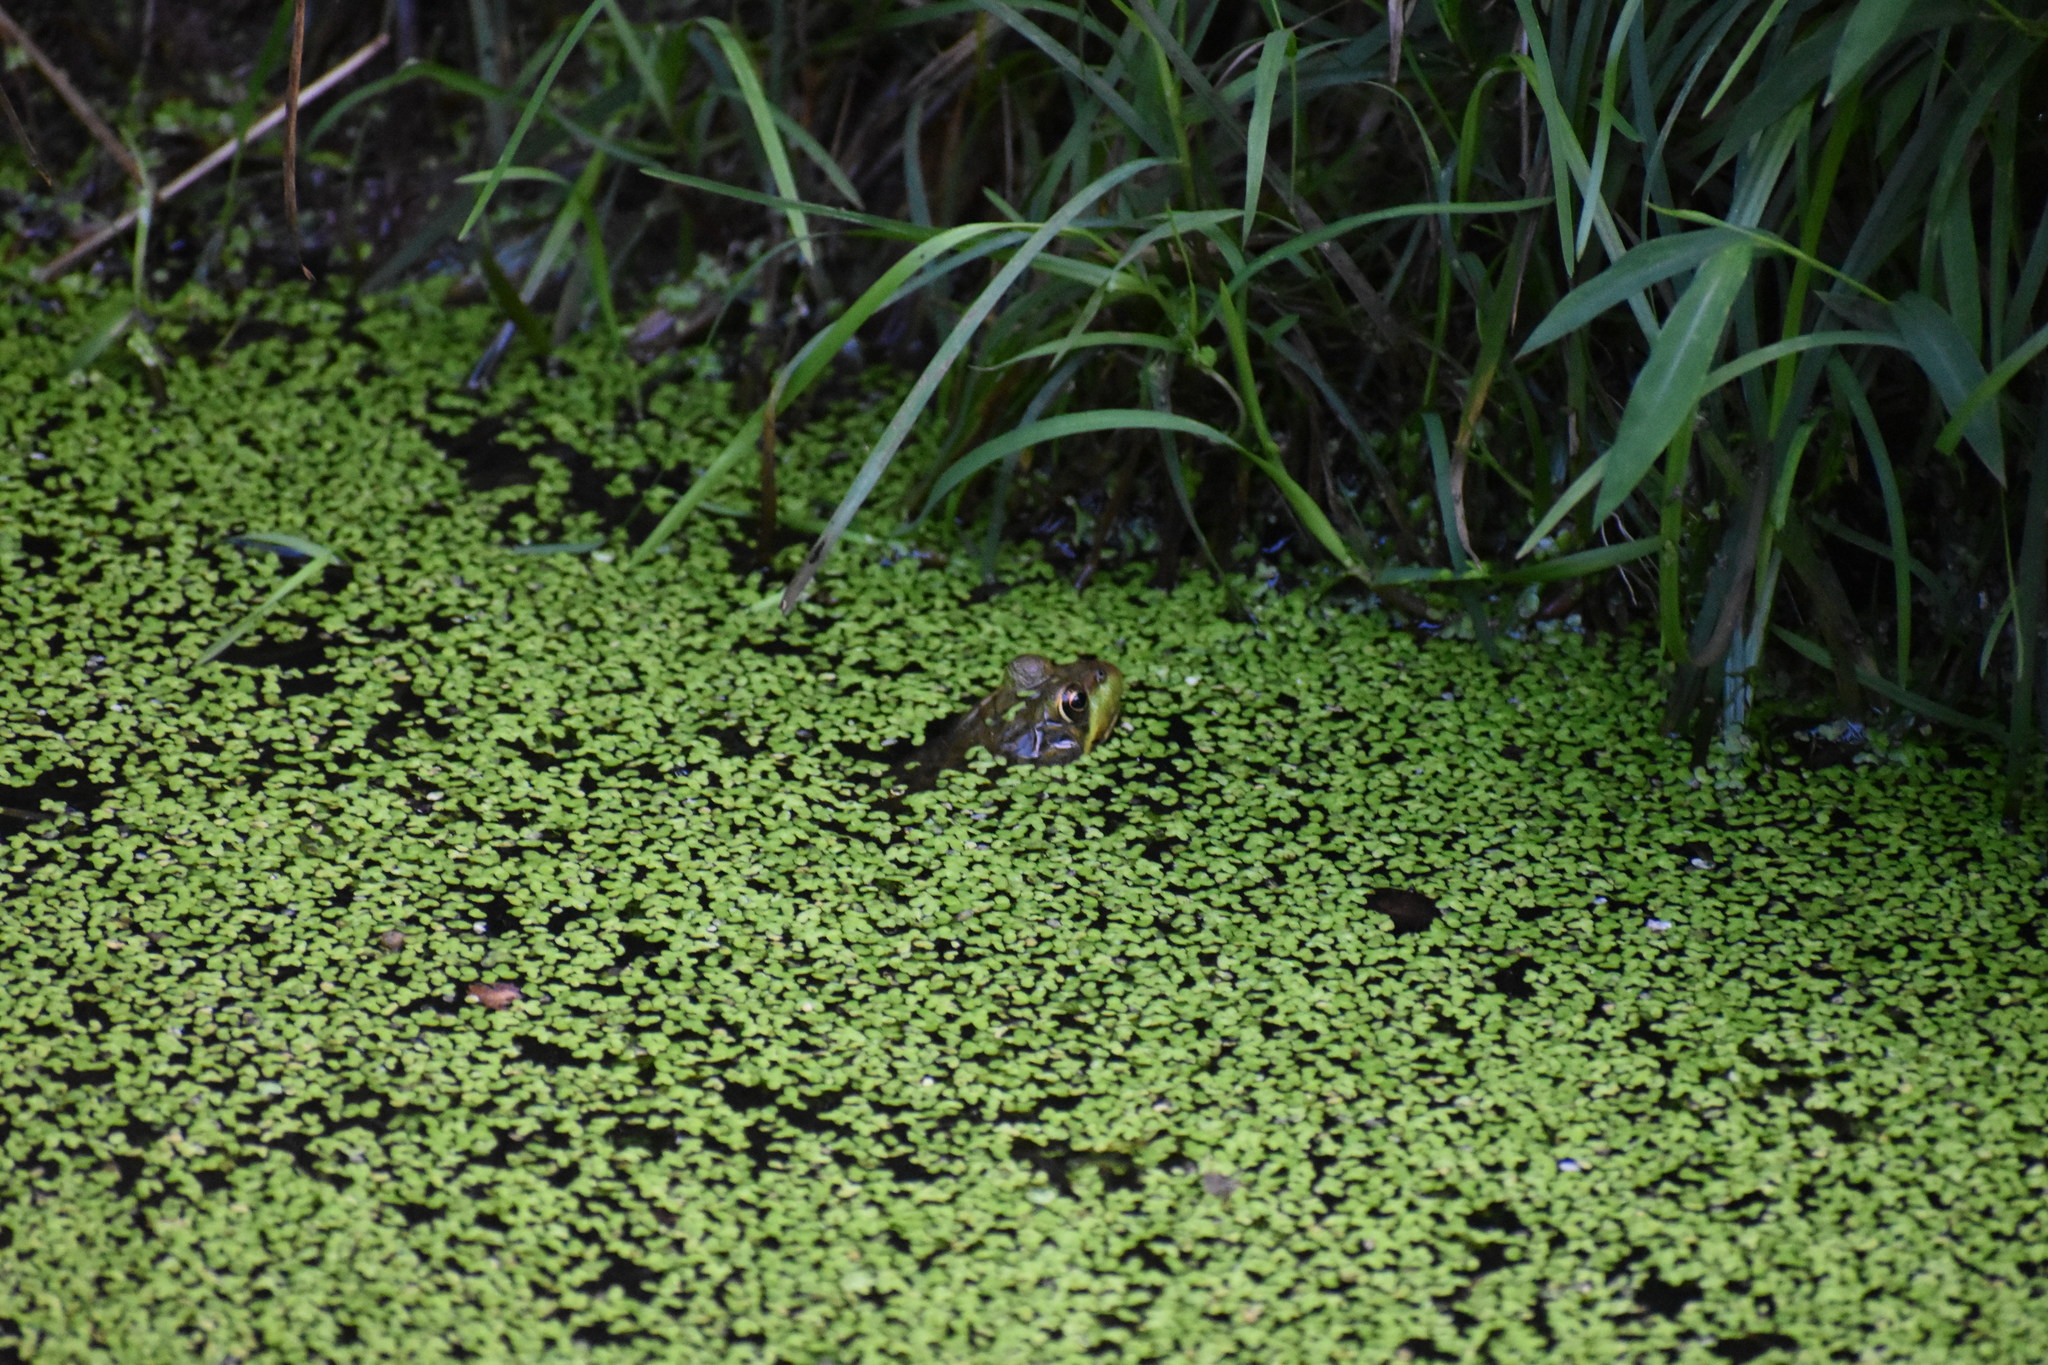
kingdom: Animalia
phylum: Chordata
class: Amphibia
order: Anura
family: Ranidae
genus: Lithobates
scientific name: Lithobates clamitans
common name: Green frog
